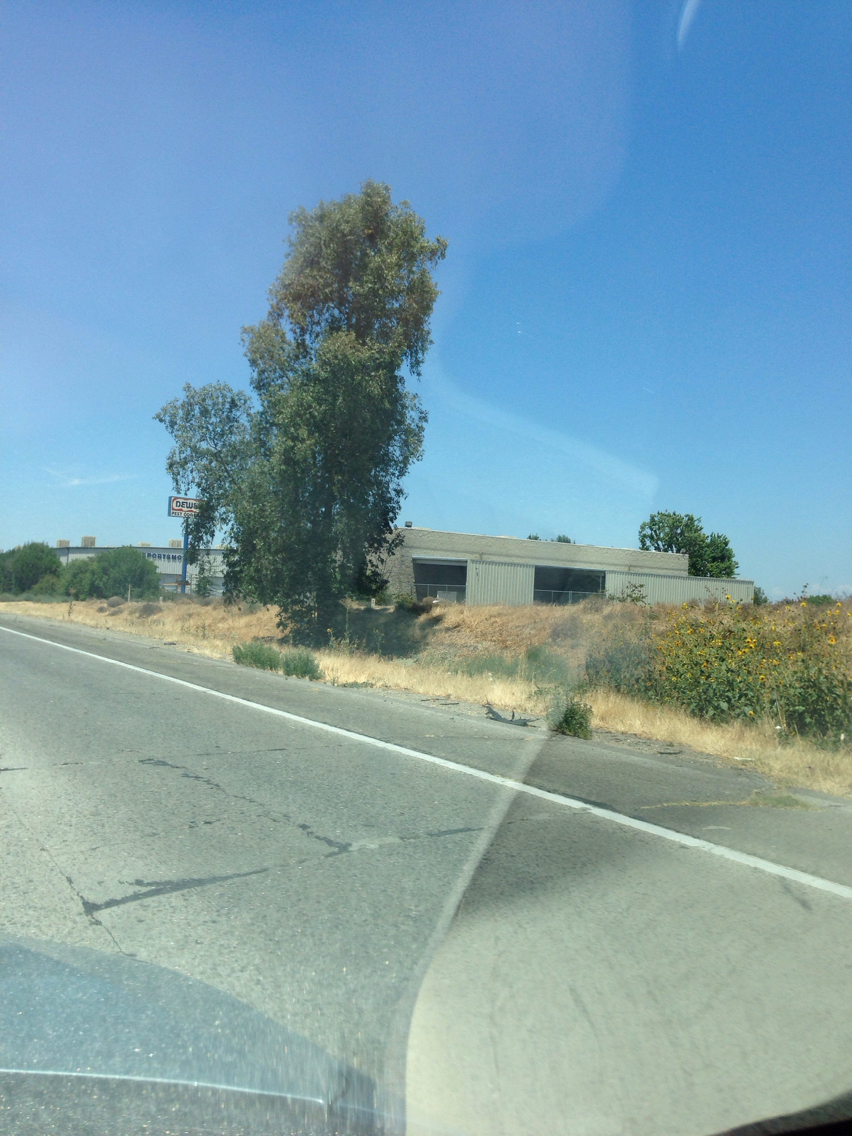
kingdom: Plantae
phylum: Tracheophyta
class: Magnoliopsida
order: Asterales
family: Asteraceae
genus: Helianthus
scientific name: Helianthus annuus
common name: Sunflower
